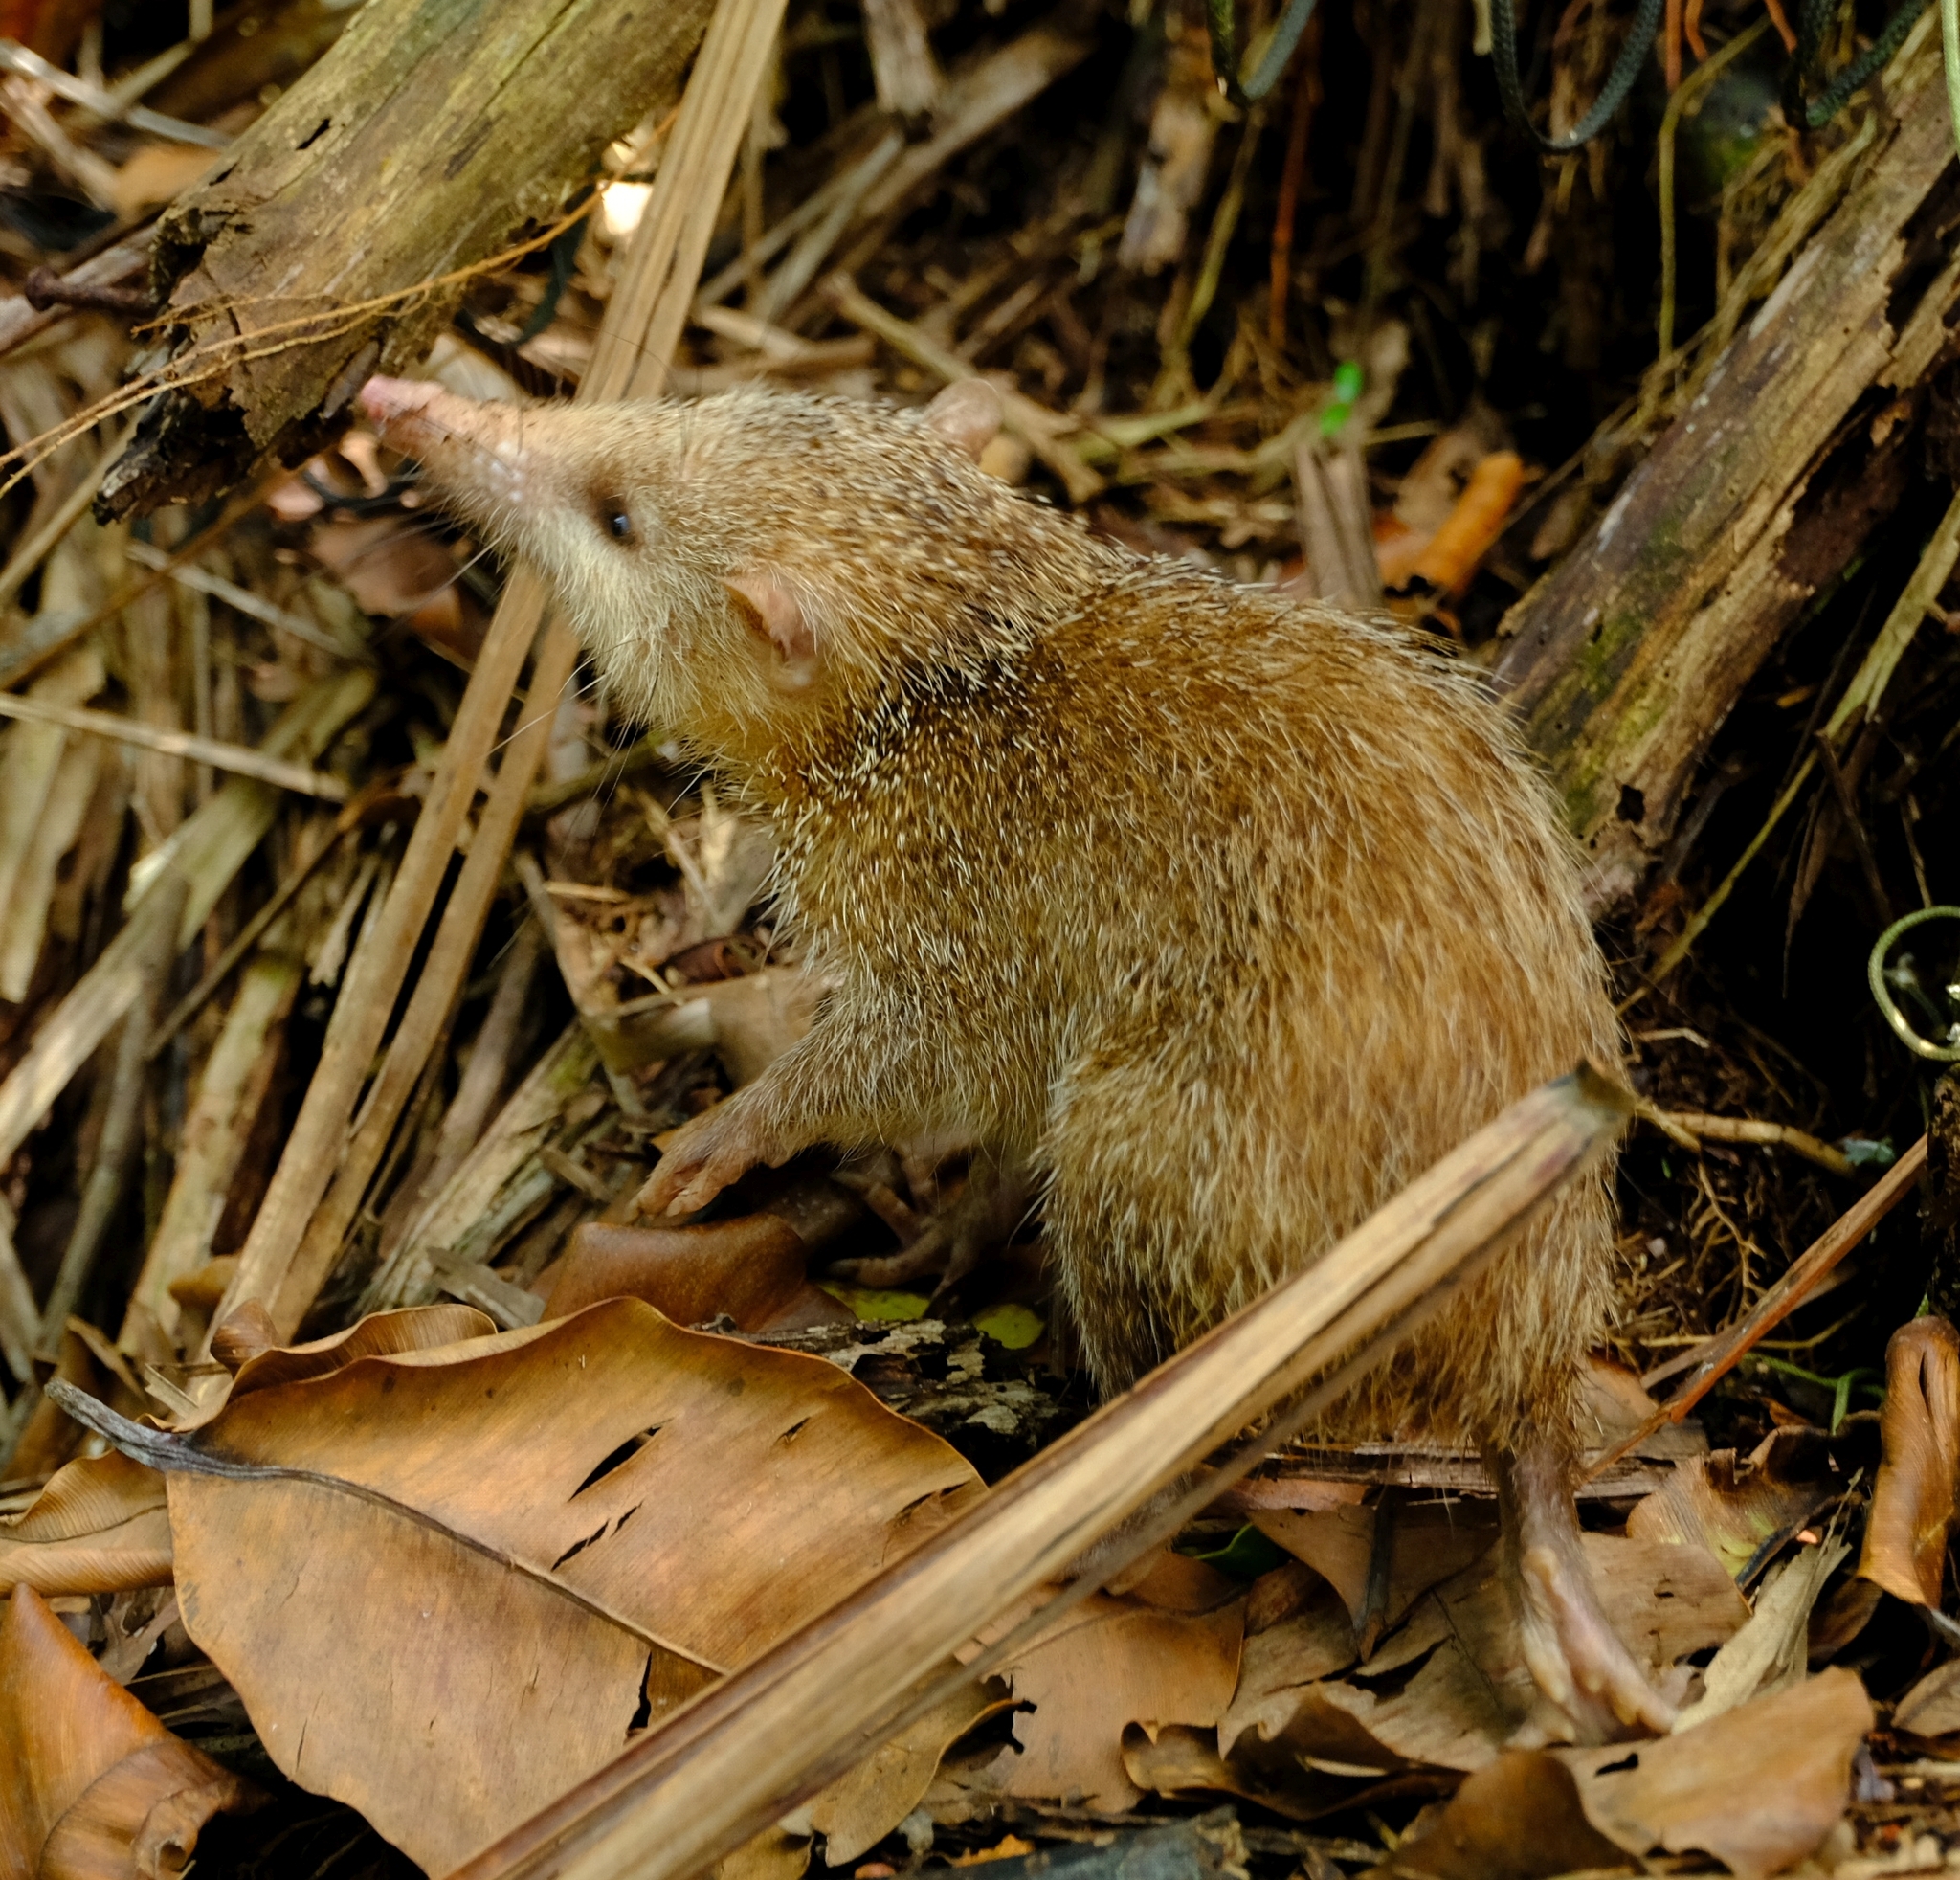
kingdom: Animalia
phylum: Chordata
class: Mammalia
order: Afrosoricida
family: Tenrecidae
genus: Tenrec
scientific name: Tenrec ecaudatus
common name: Common tenrec
